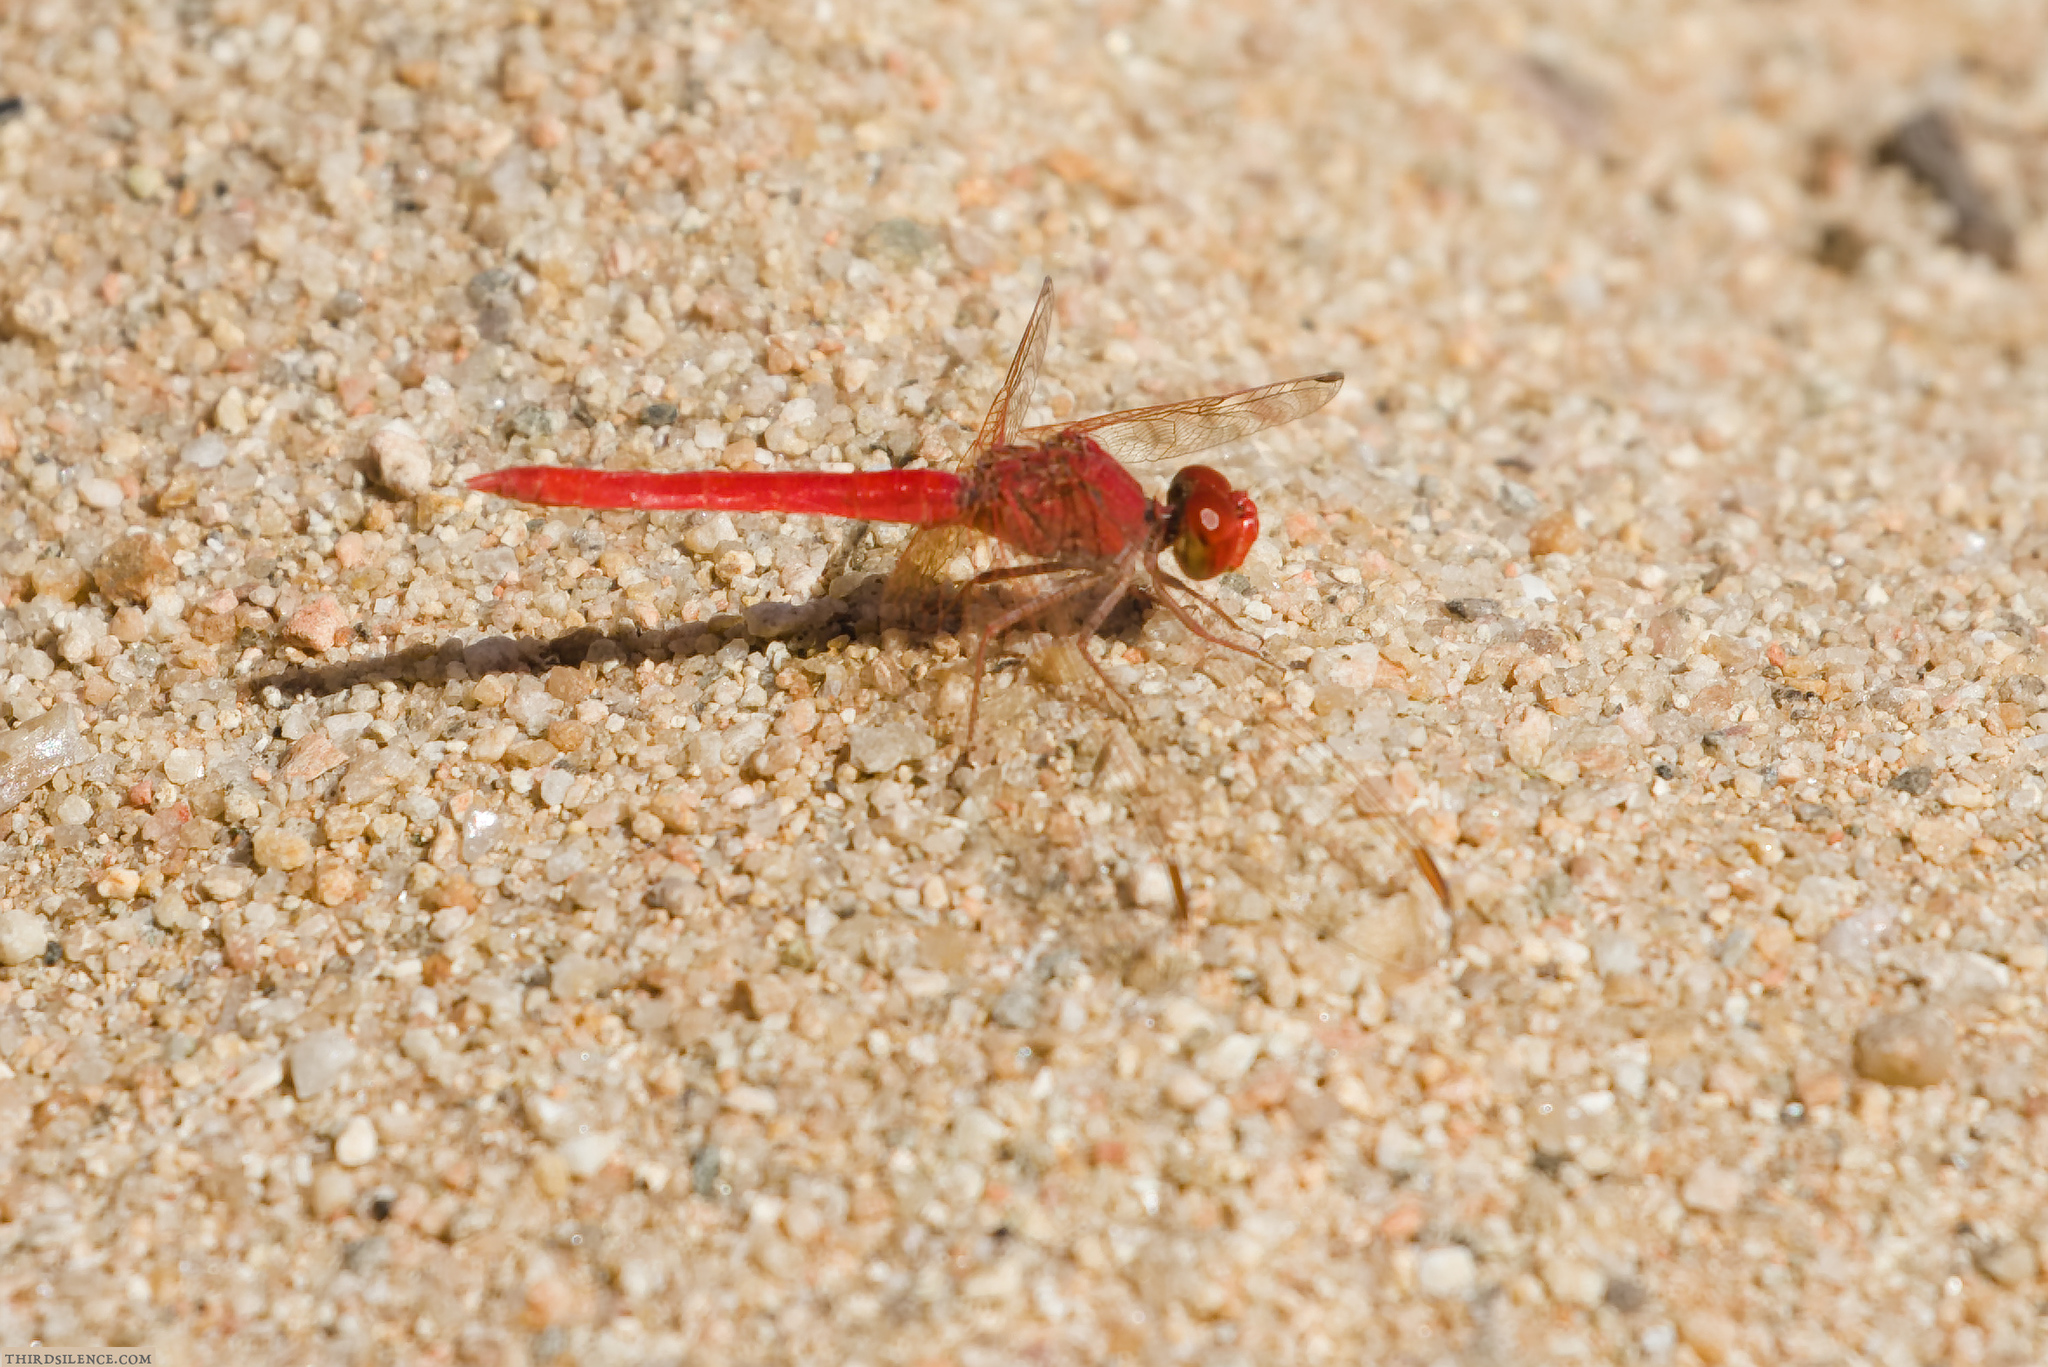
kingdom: Animalia
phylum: Arthropoda
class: Insecta
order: Odonata
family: Libellulidae
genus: Diplacodes
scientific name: Diplacodes haematodes
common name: Scarlet percher
